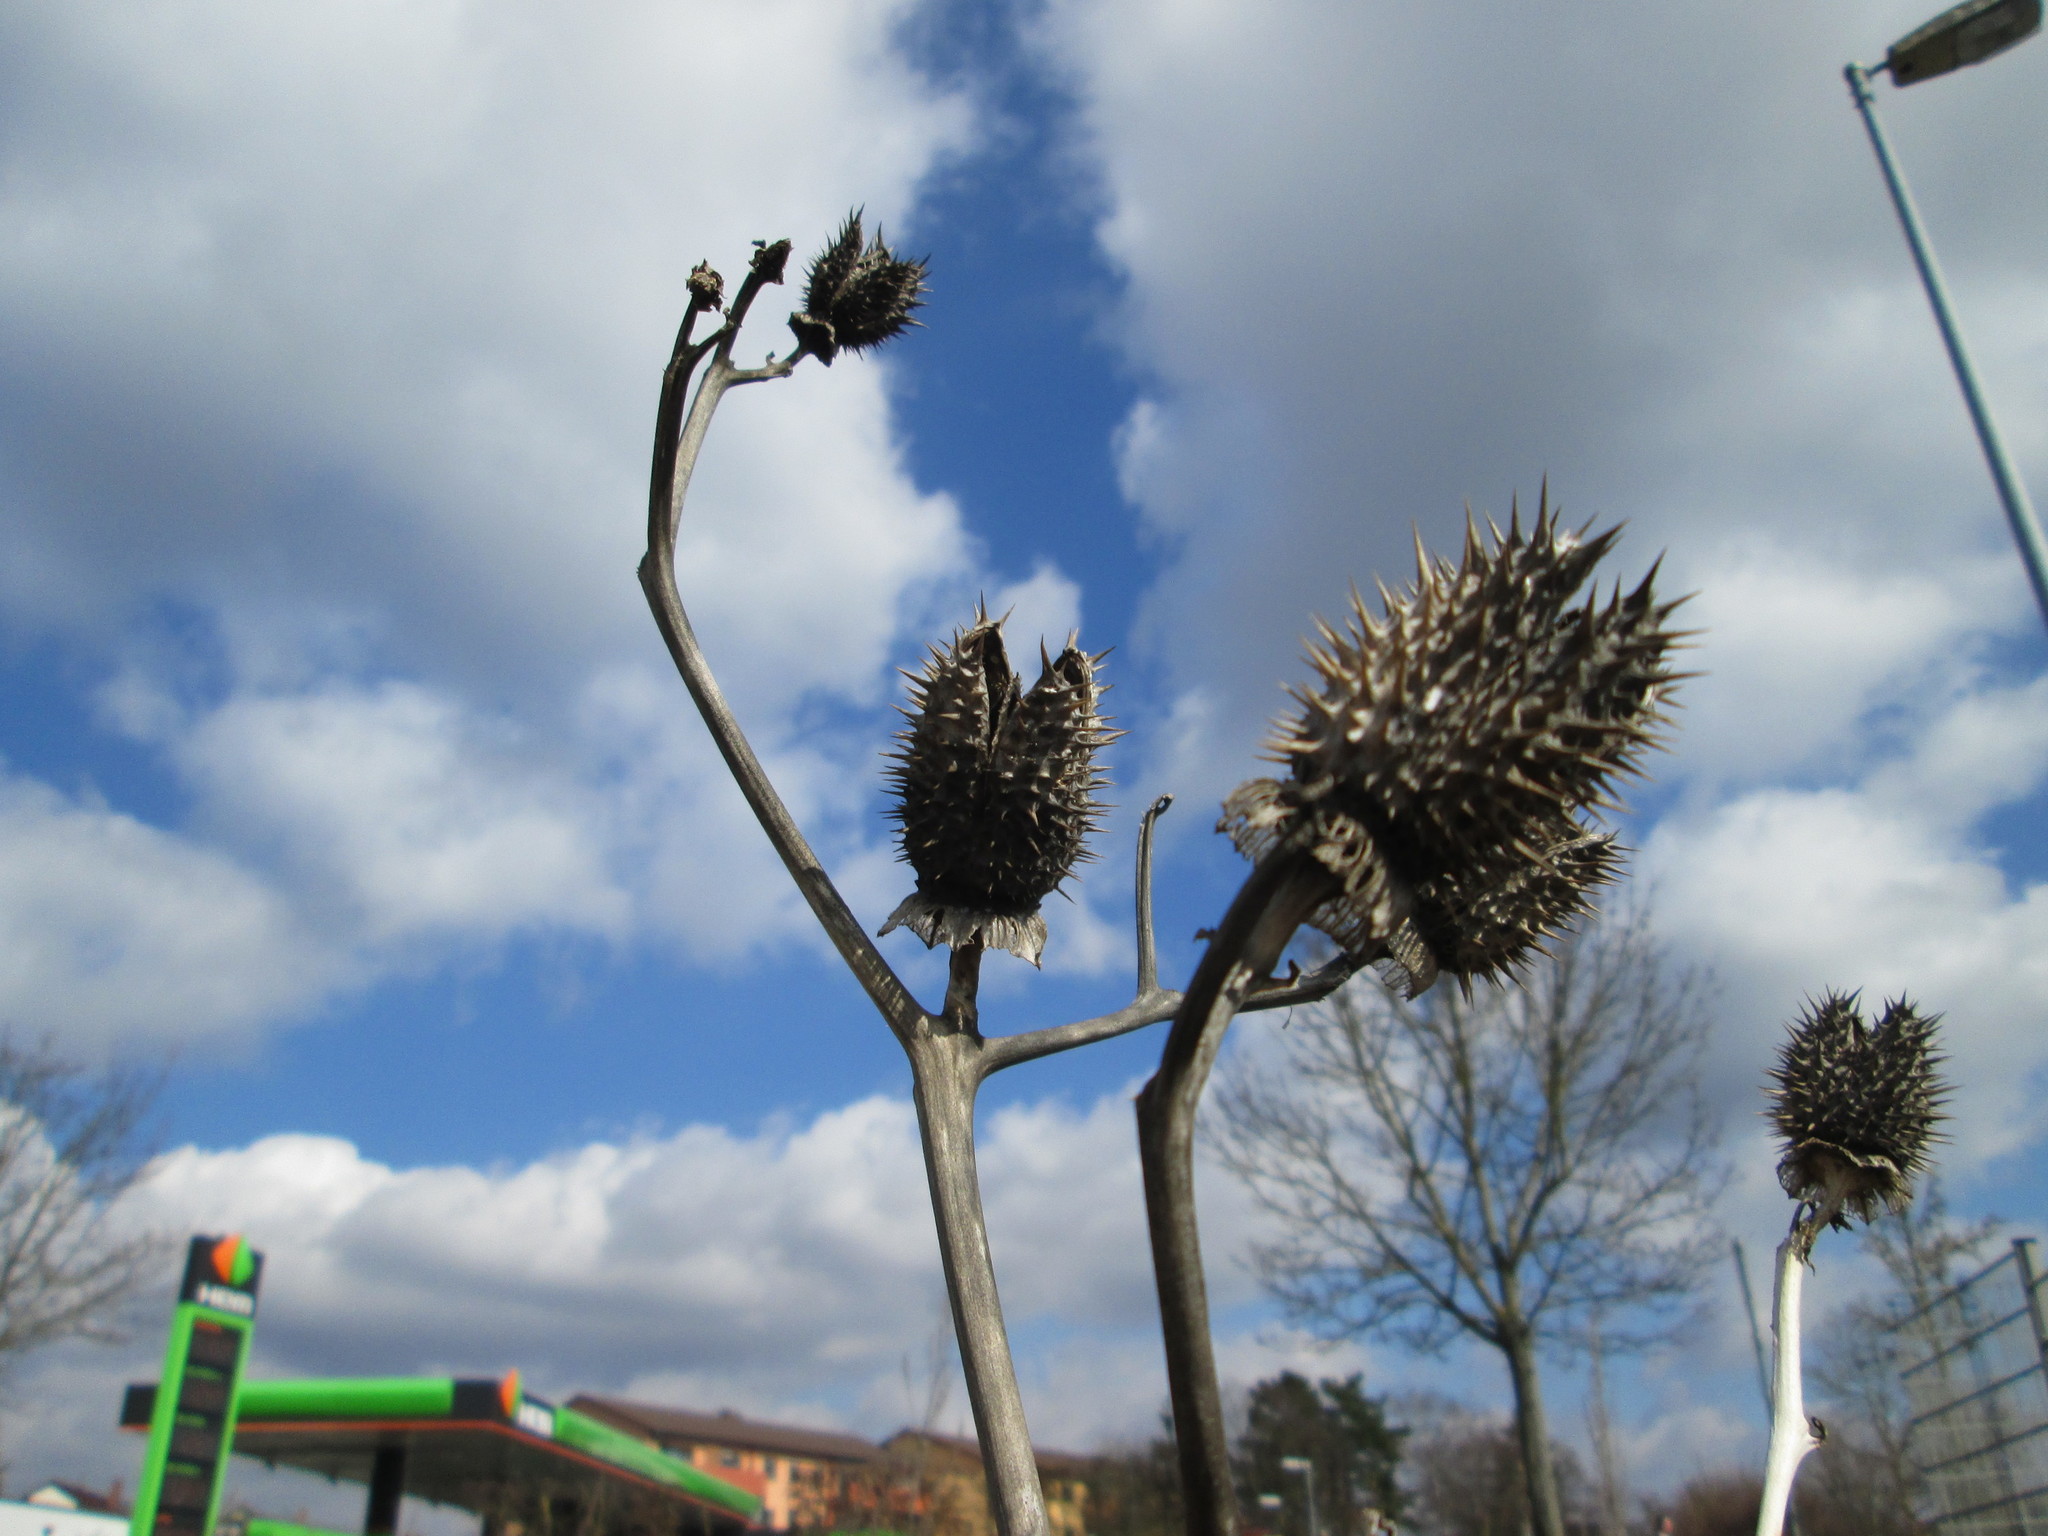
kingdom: Plantae
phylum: Tracheophyta
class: Magnoliopsida
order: Solanales
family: Solanaceae
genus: Datura
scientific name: Datura stramonium
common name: Thorn-apple
